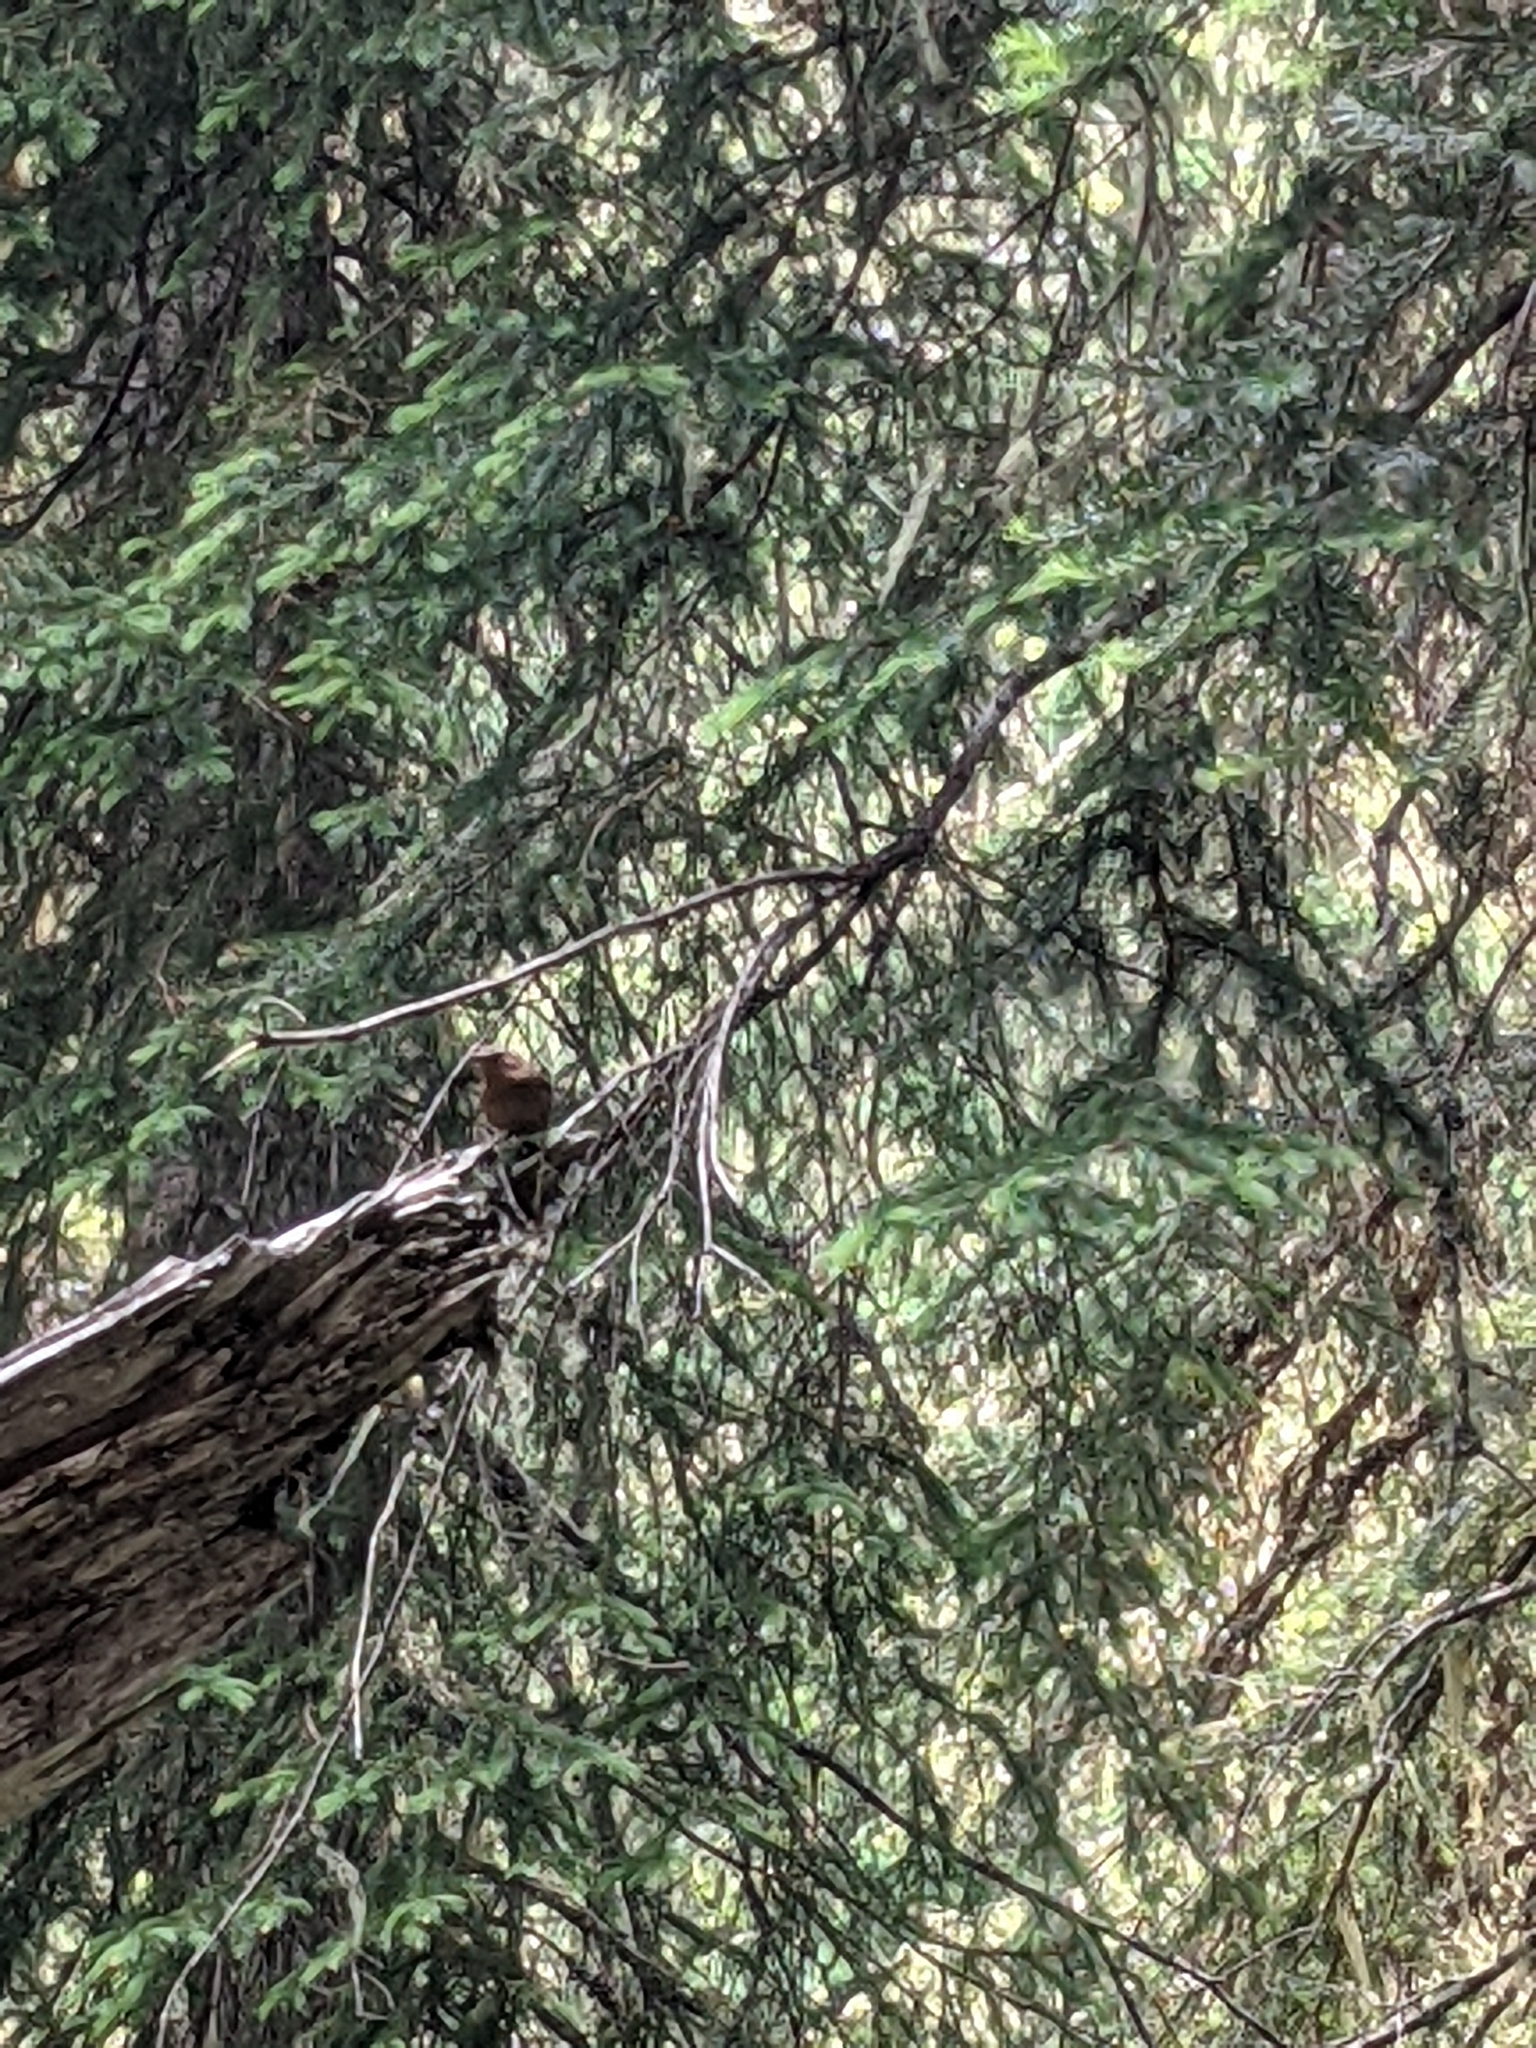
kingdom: Animalia
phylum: Chordata
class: Aves
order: Passeriformes
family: Troglodytidae
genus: Troglodytes
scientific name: Troglodytes pacificus
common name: Pacific wren
